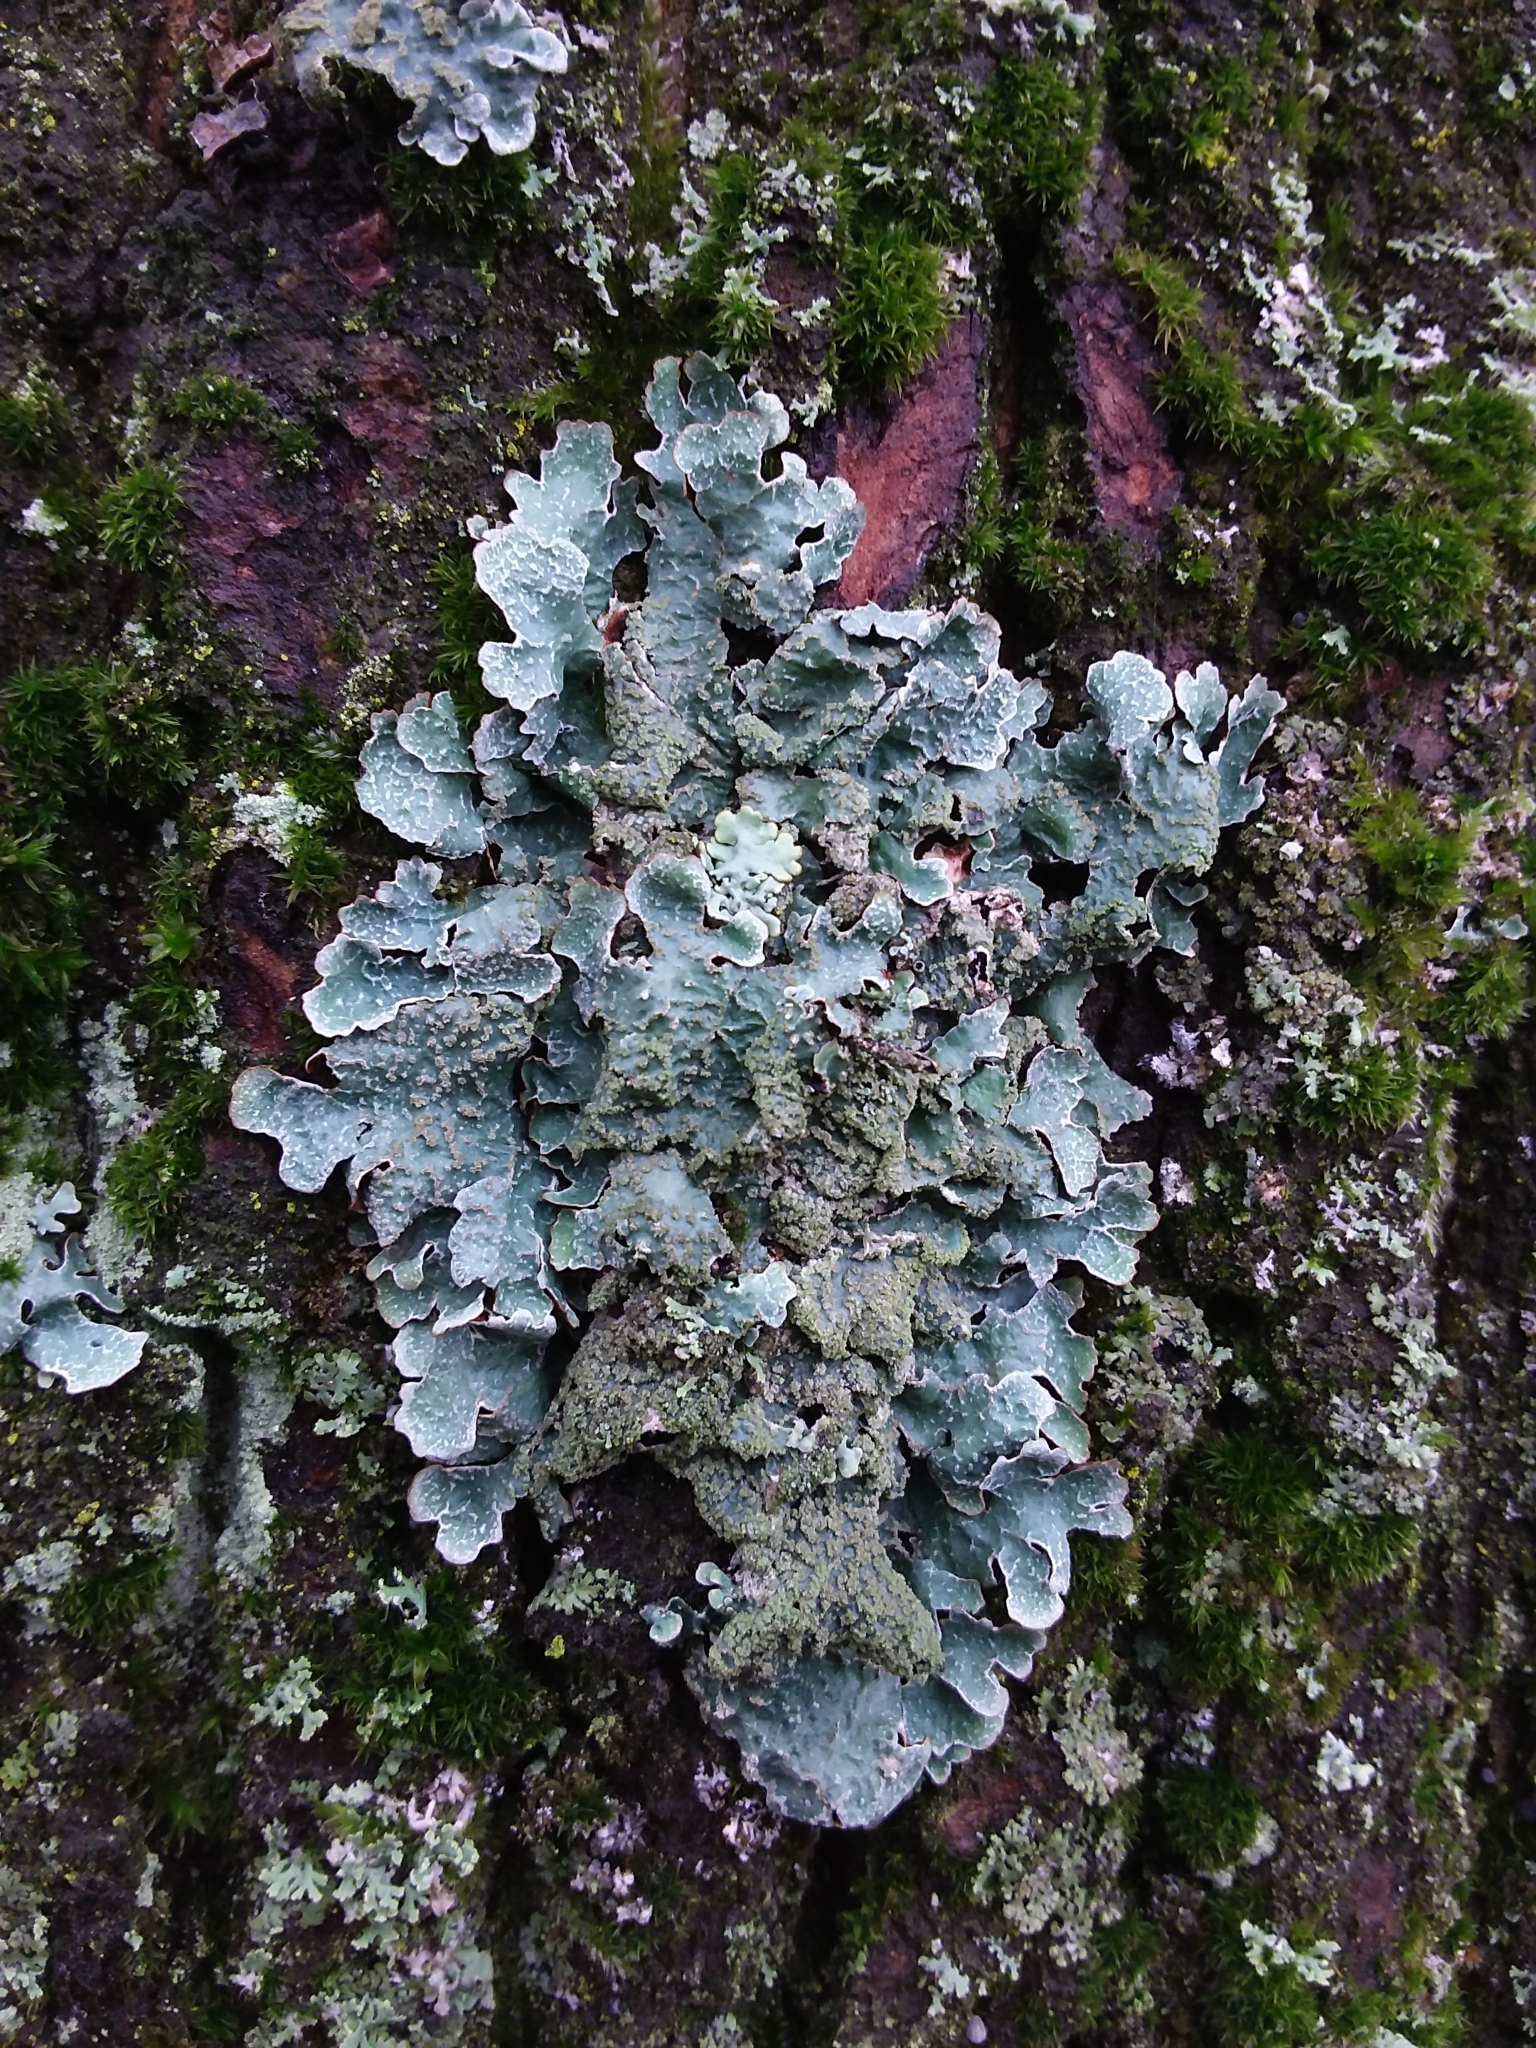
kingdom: Fungi
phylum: Ascomycota
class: Lecanoromycetes
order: Lecanorales
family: Parmeliaceae
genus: Parmelia
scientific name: Parmelia sulcata
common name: Netted shield lichen
